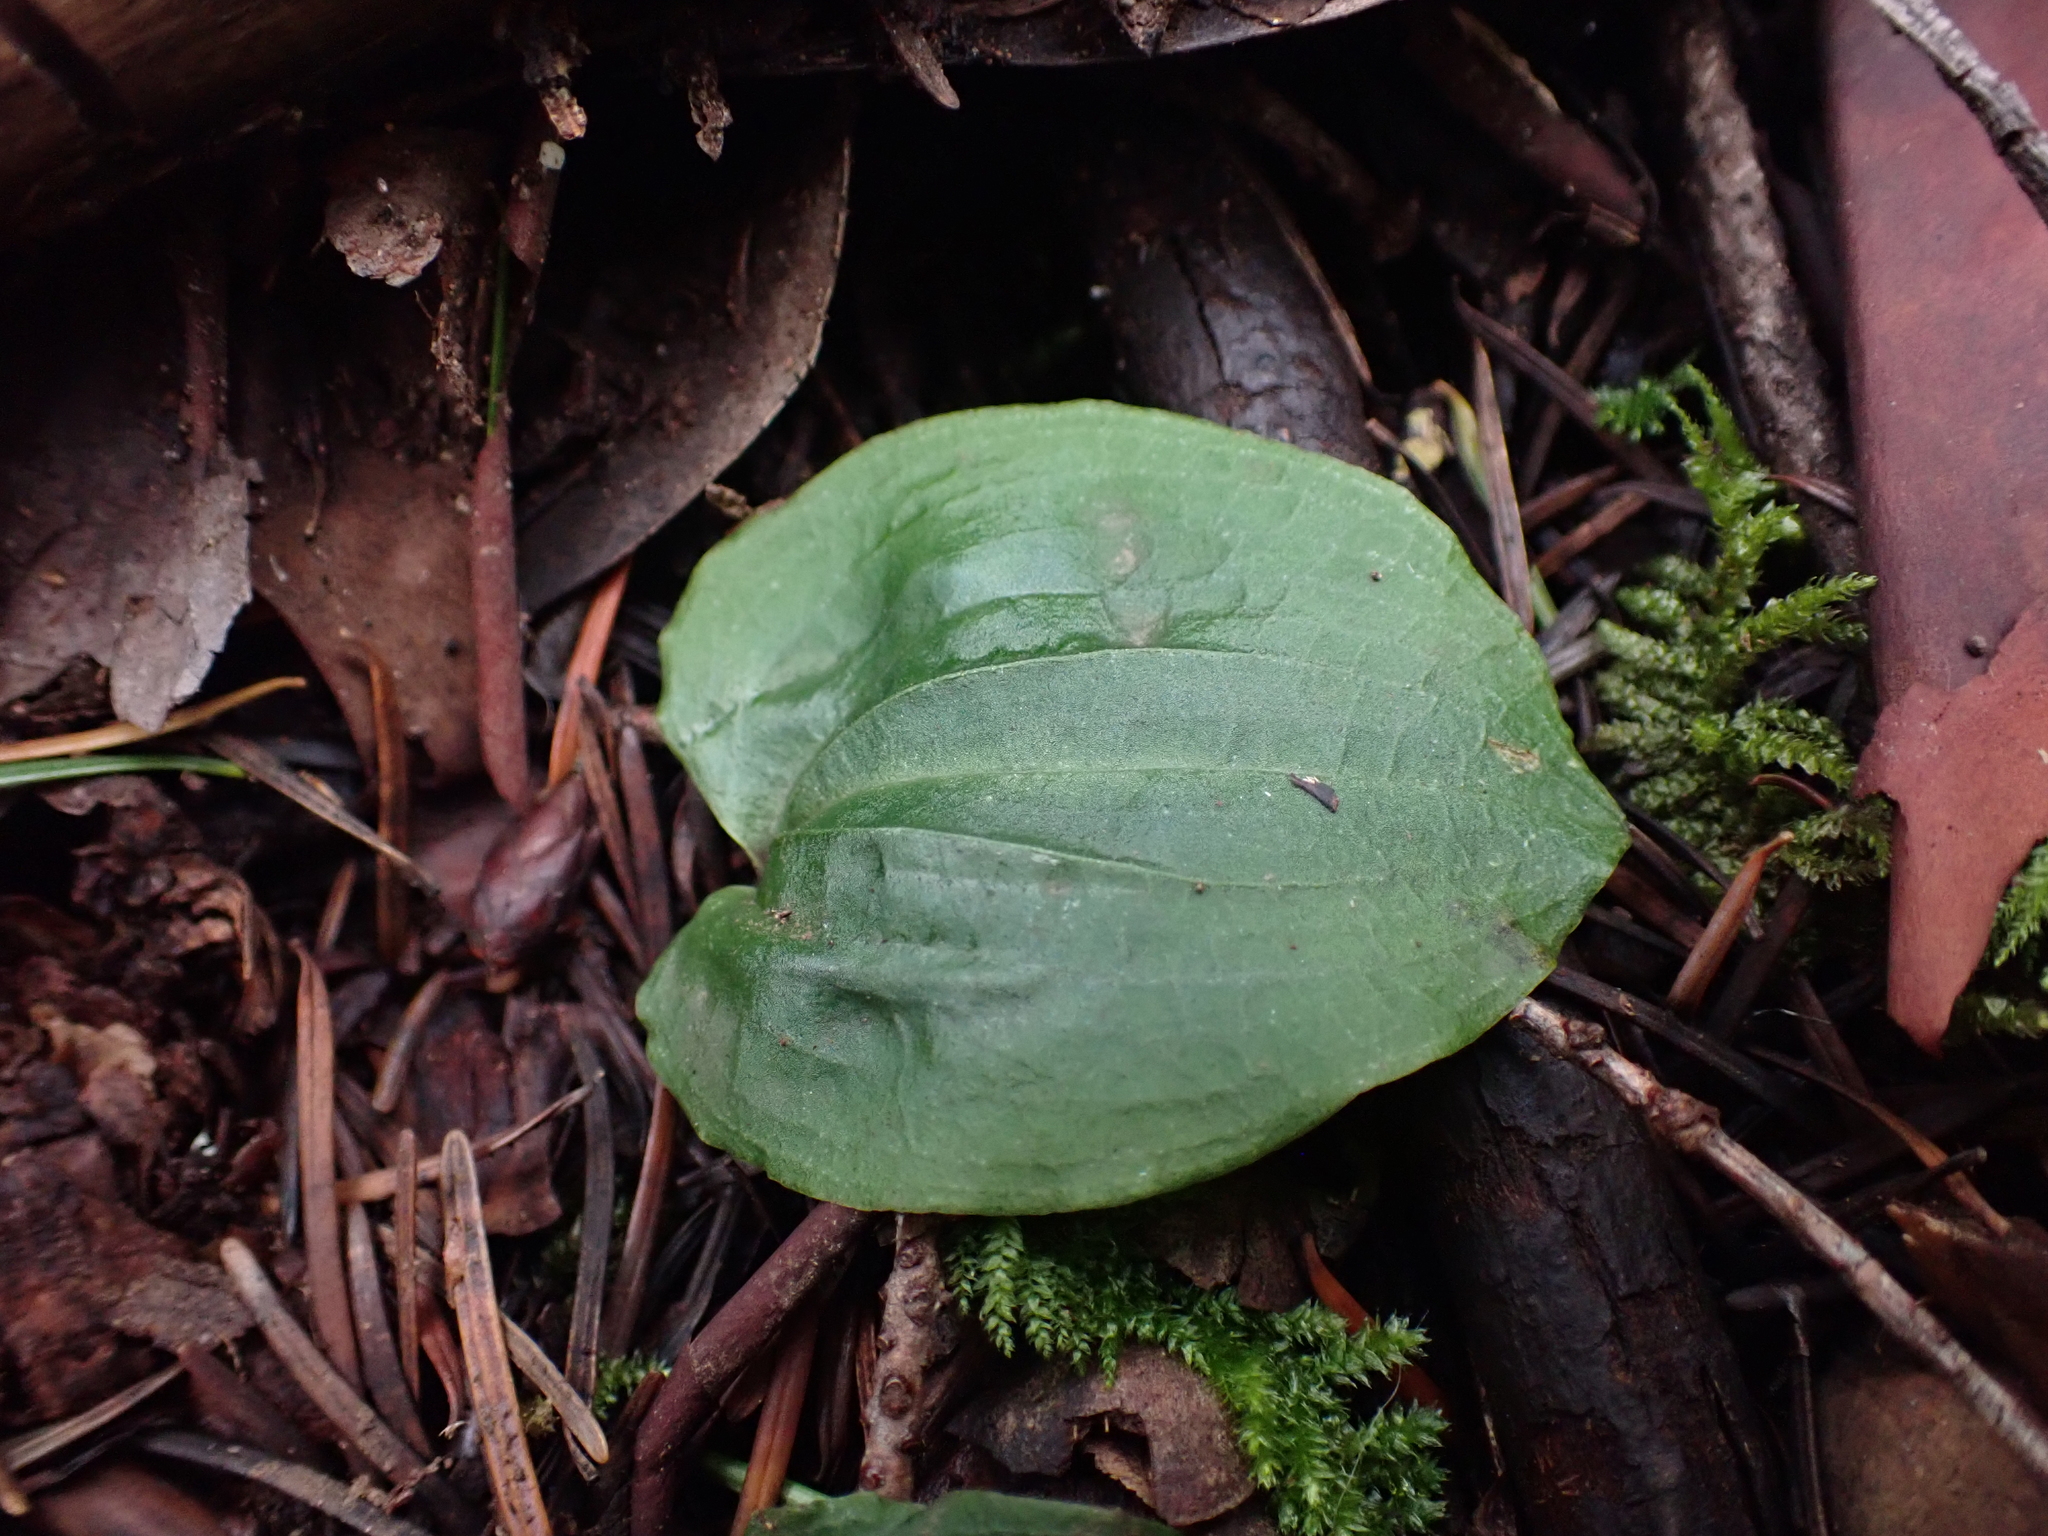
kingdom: Plantae
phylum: Tracheophyta
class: Liliopsida
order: Asparagales
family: Orchidaceae
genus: Calypso
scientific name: Calypso bulbosa
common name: Calypso
